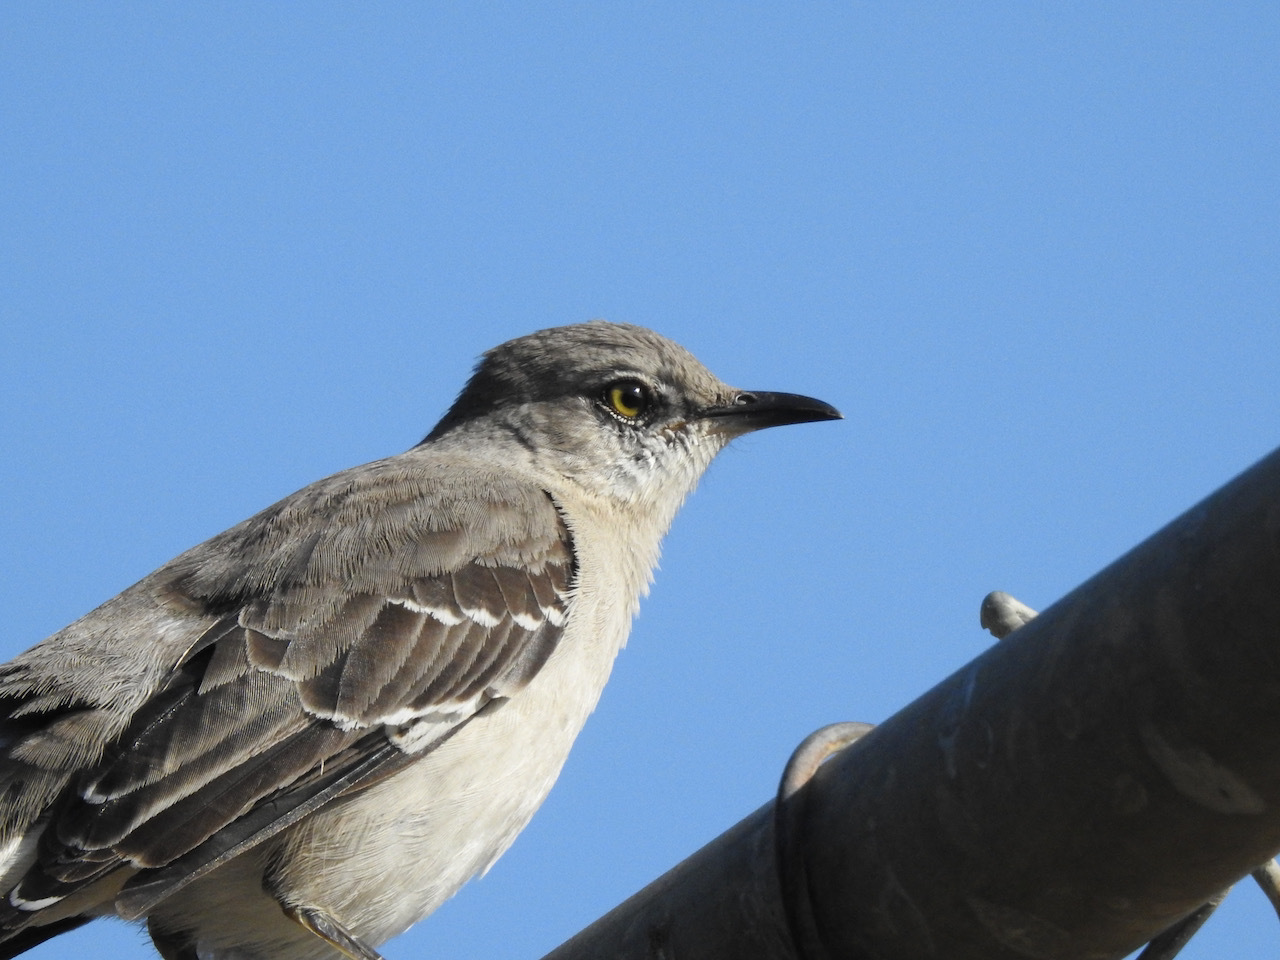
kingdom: Animalia
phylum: Chordata
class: Aves
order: Passeriformes
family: Mimidae
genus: Mimus
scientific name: Mimus polyglottos
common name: Northern mockingbird
